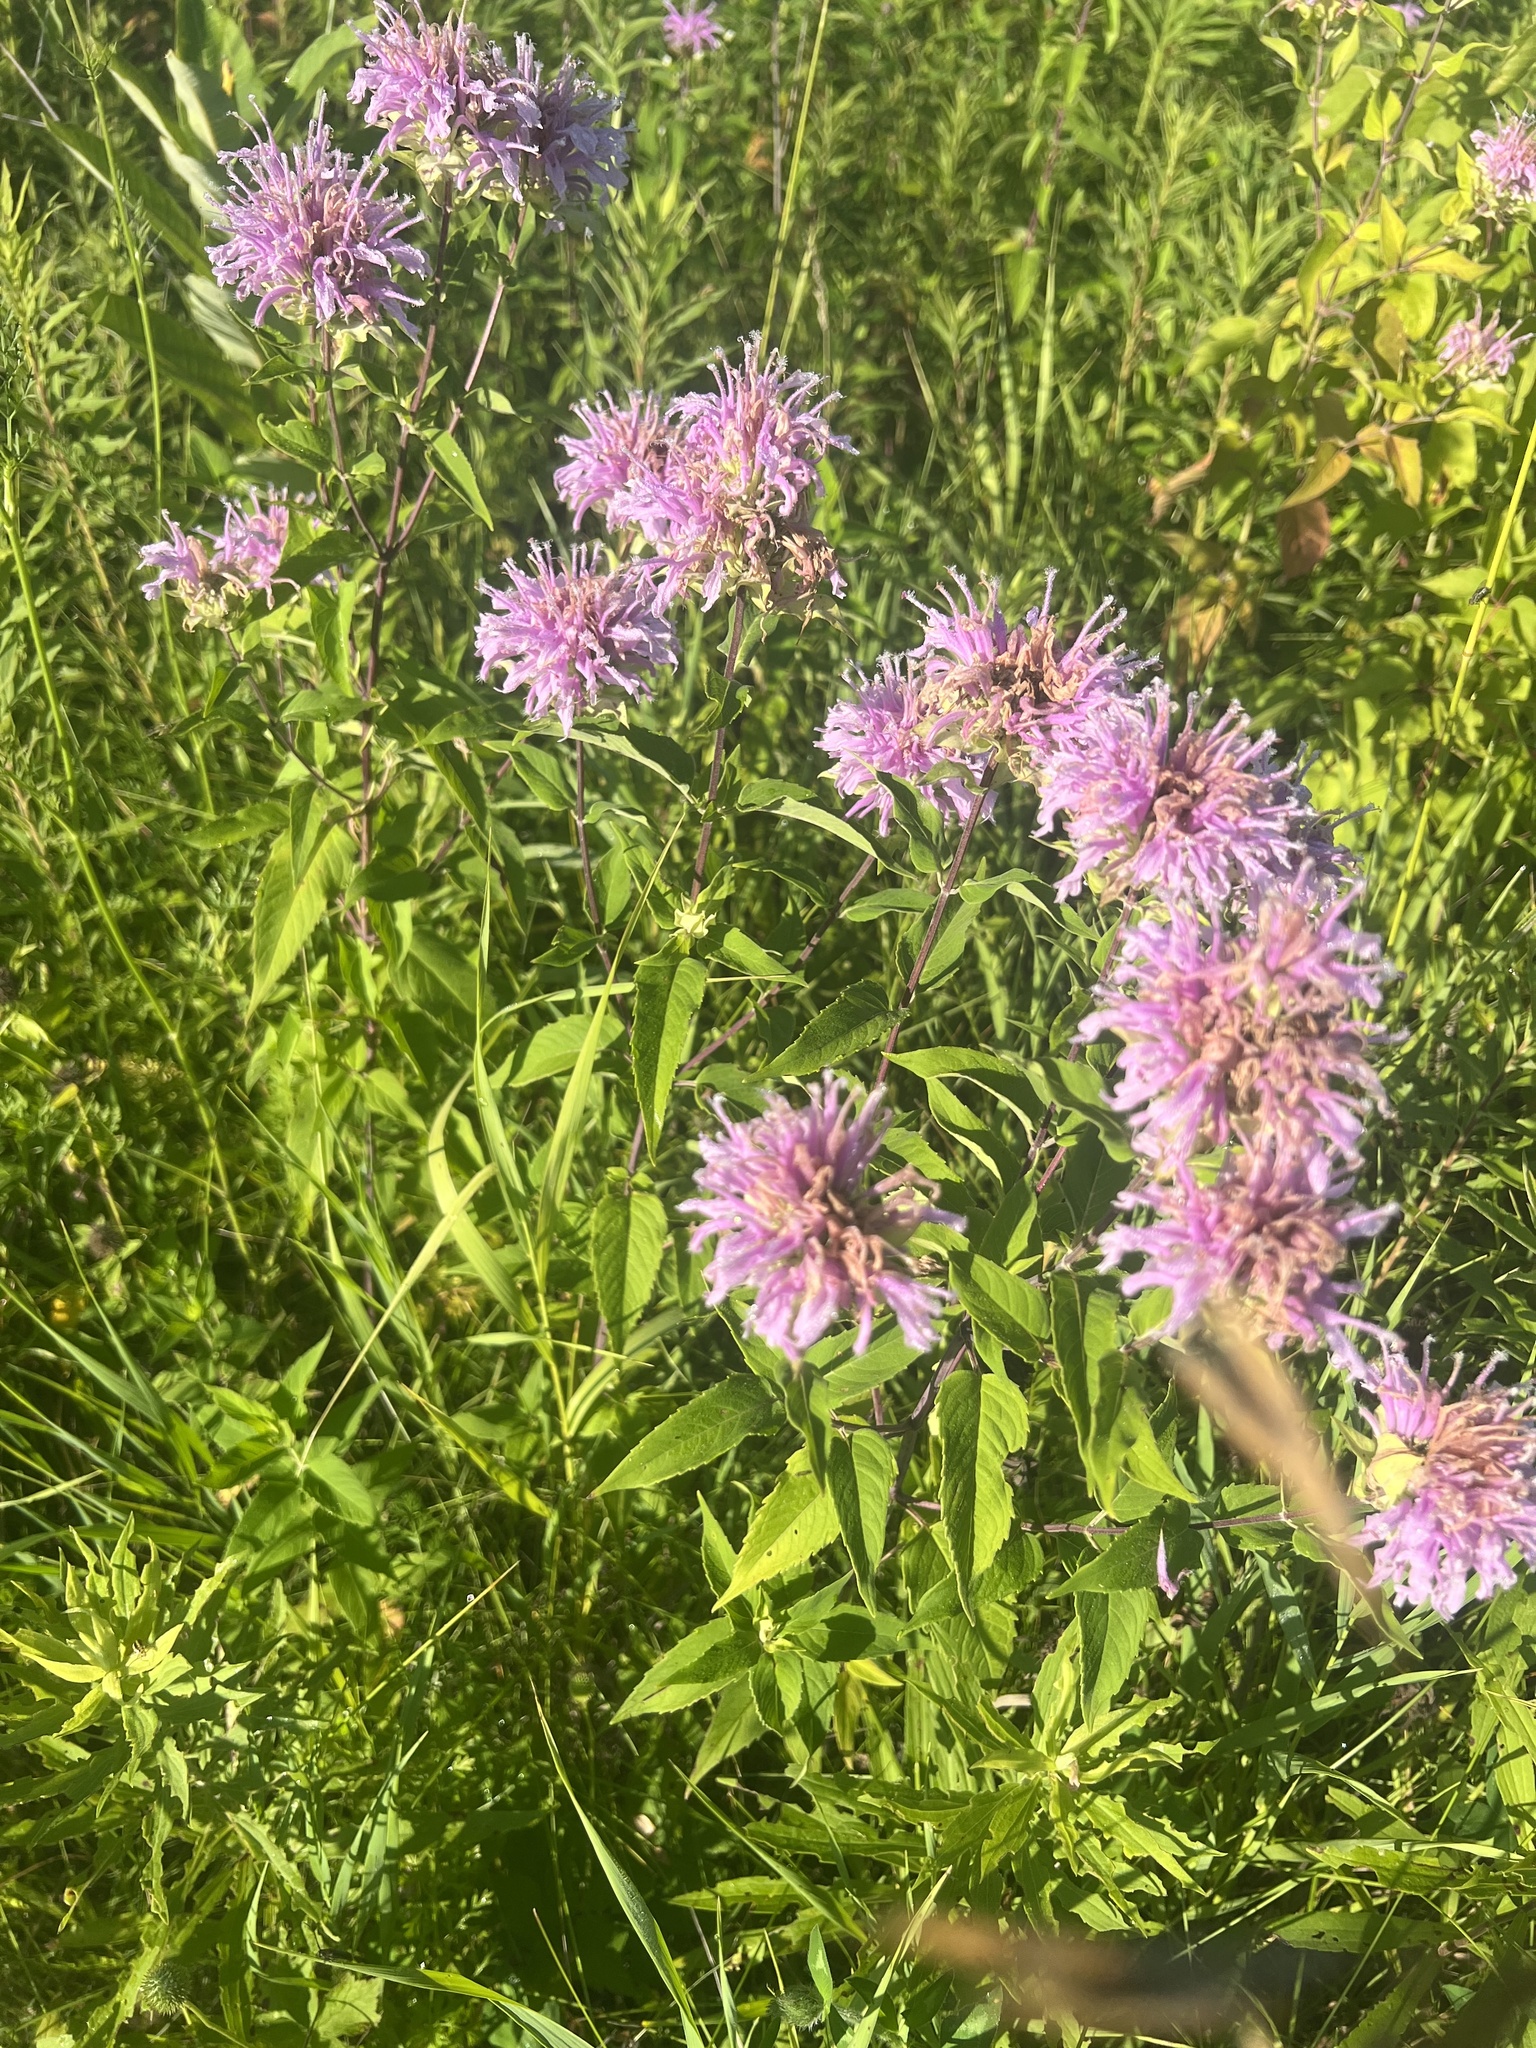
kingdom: Plantae
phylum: Tracheophyta
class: Magnoliopsida
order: Lamiales
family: Lamiaceae
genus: Monarda
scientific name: Monarda fistulosa
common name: Purple beebalm
